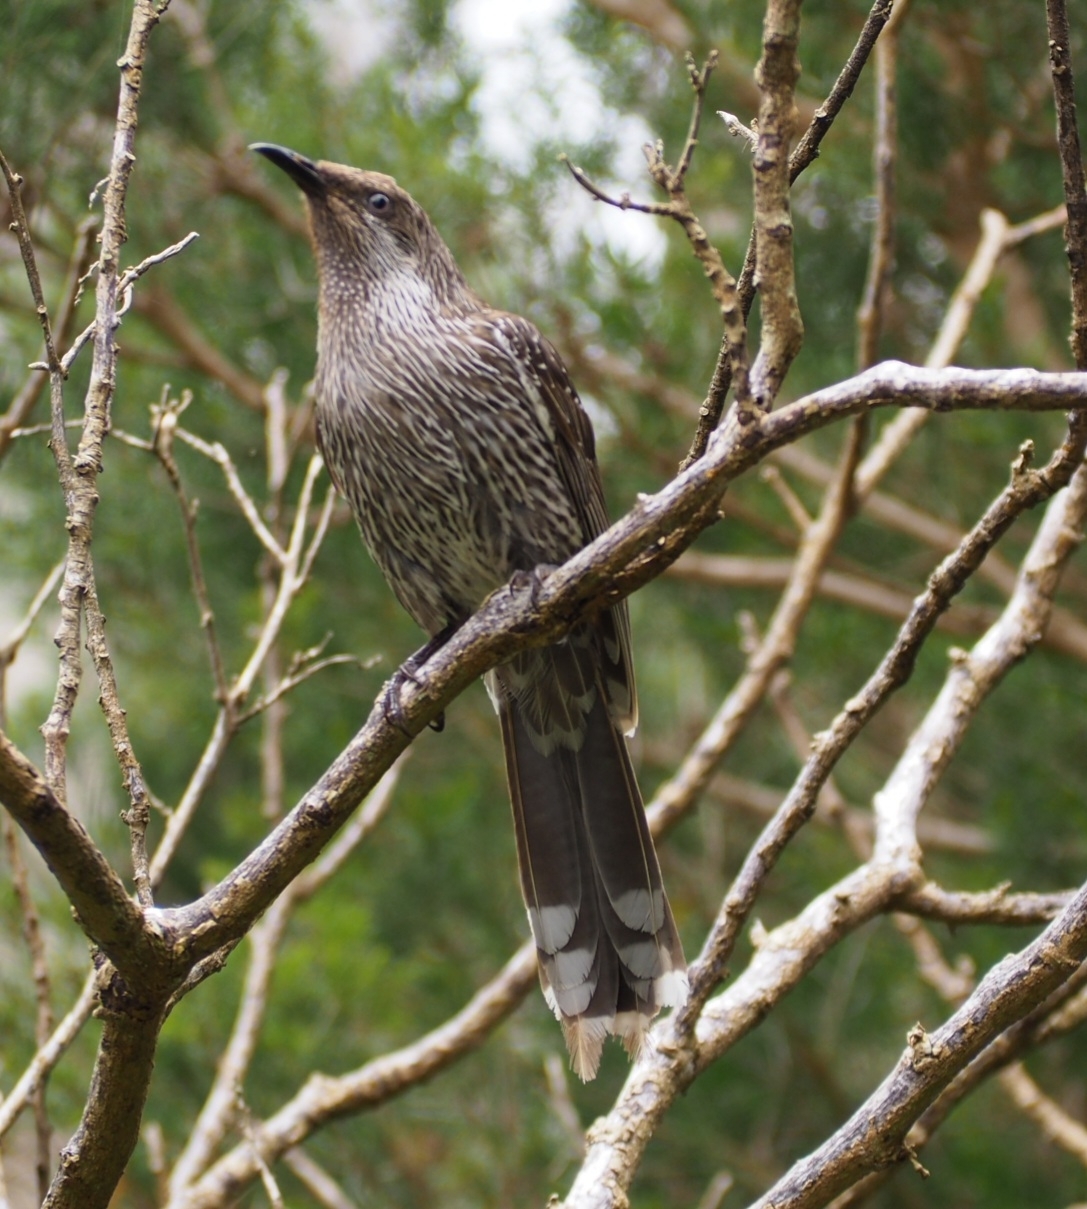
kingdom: Animalia
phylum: Chordata
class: Aves
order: Passeriformes
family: Meliphagidae
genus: Anthochaera
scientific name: Anthochaera chrysoptera
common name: Little wattlebird
